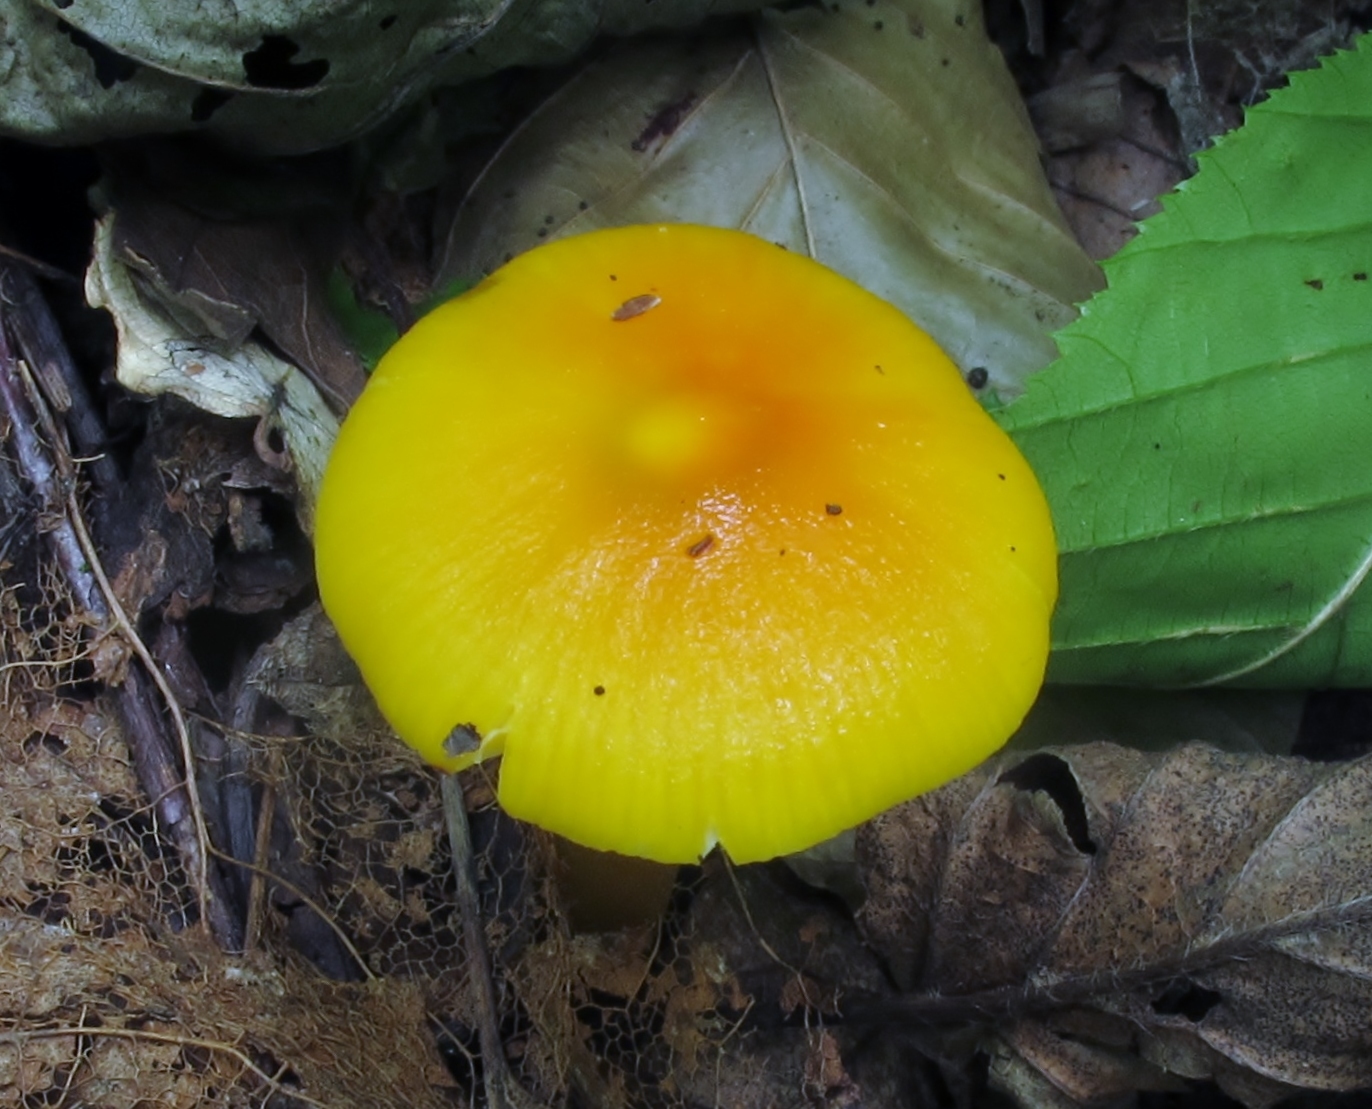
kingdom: Fungi
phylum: Basidiomycota
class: Agaricomycetes
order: Agaricales
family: Hygrophoraceae
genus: Hygrocybe
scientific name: Hygrocybe flavescens
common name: Golden waxy cap
